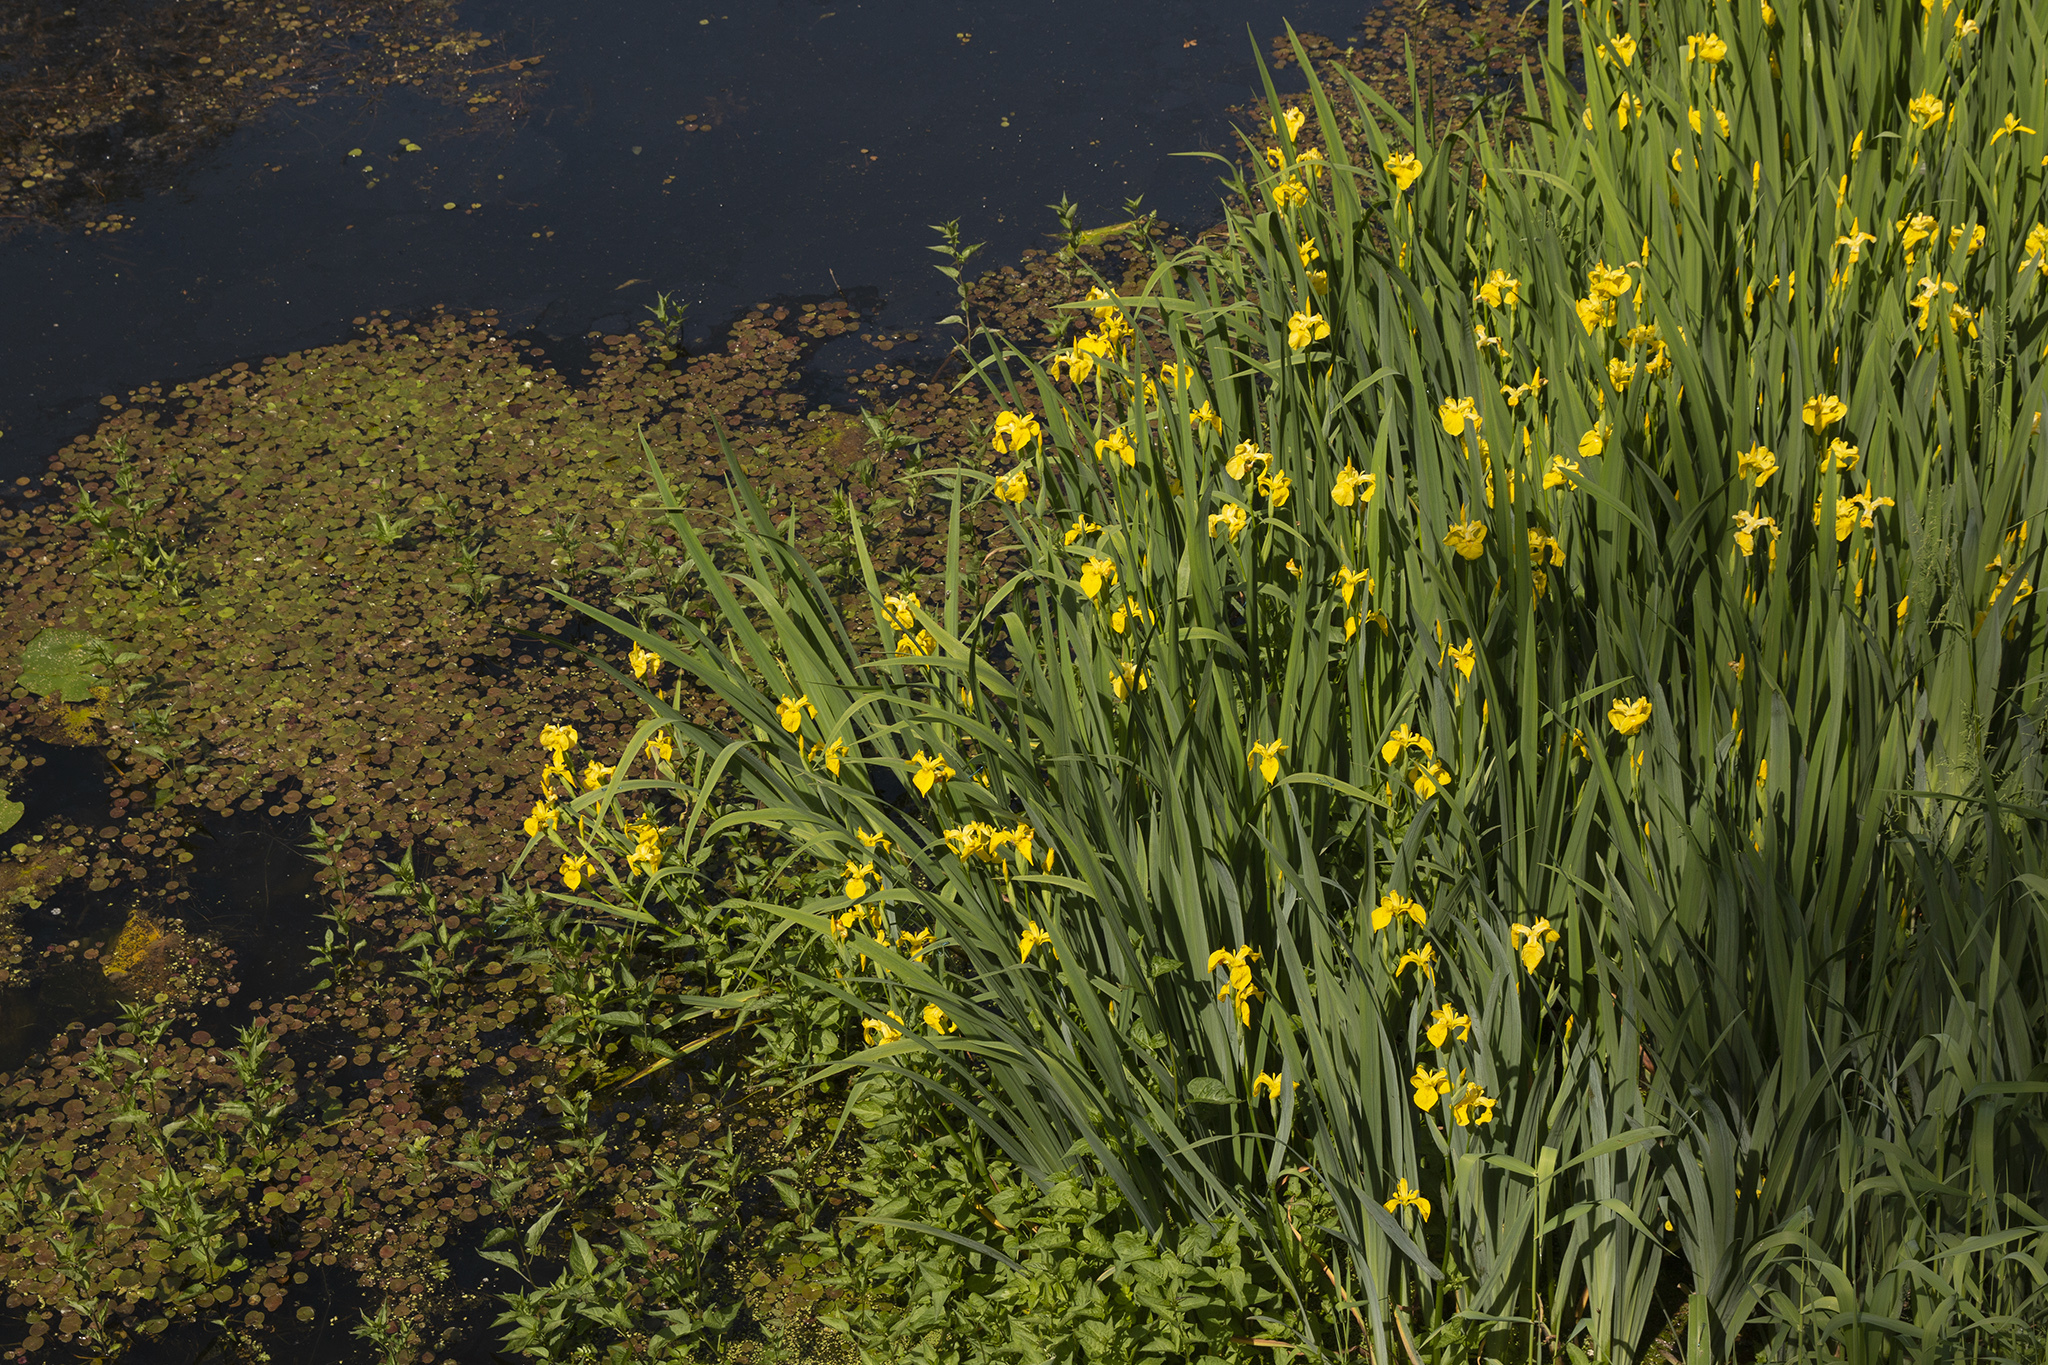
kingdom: Plantae
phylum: Tracheophyta
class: Liliopsida
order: Asparagales
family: Iridaceae
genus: Iris
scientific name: Iris pseudacorus
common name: Yellow flag
